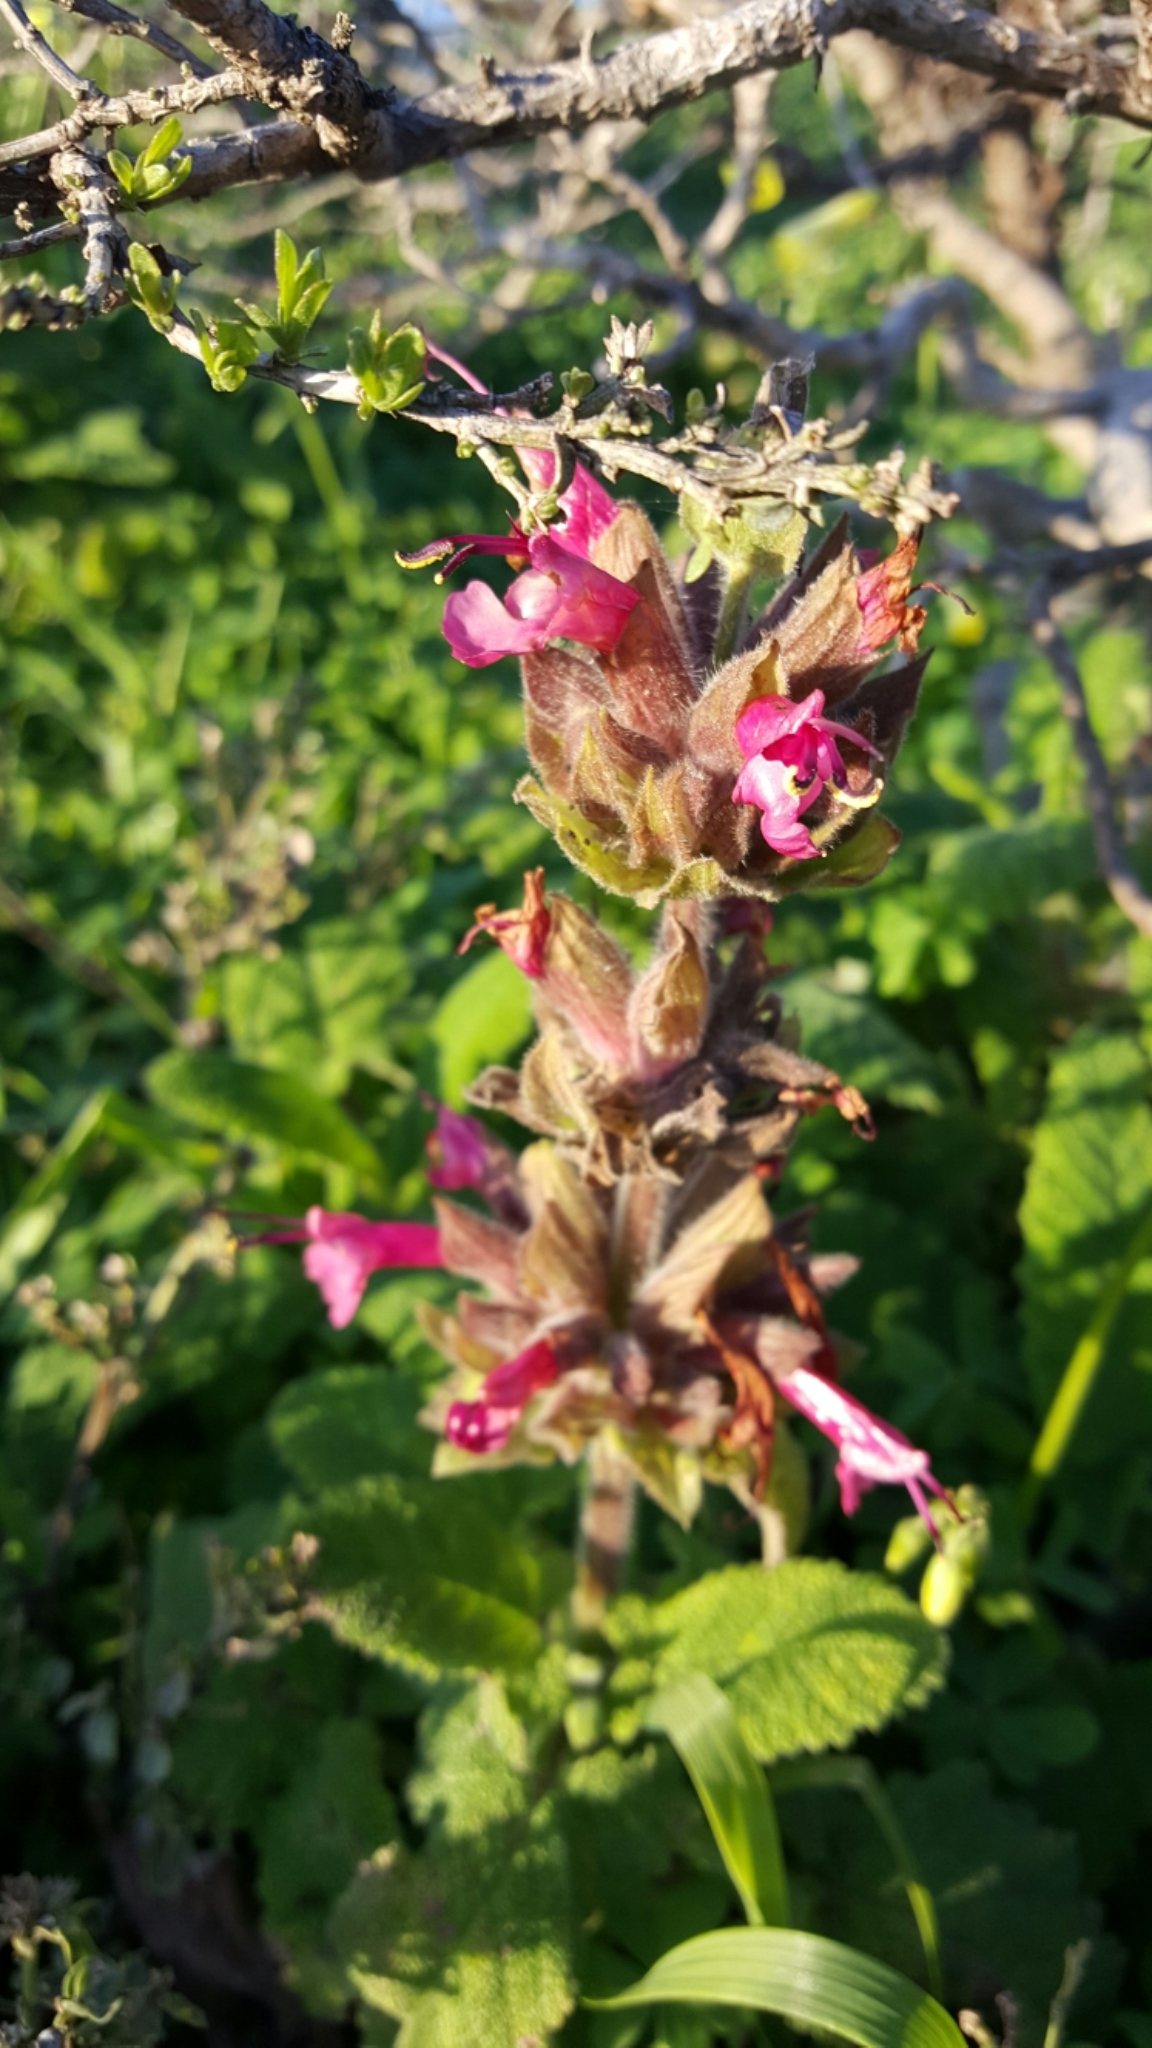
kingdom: Plantae
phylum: Tracheophyta
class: Magnoliopsida
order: Lamiales
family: Lamiaceae
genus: Salvia
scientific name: Salvia spathacea
